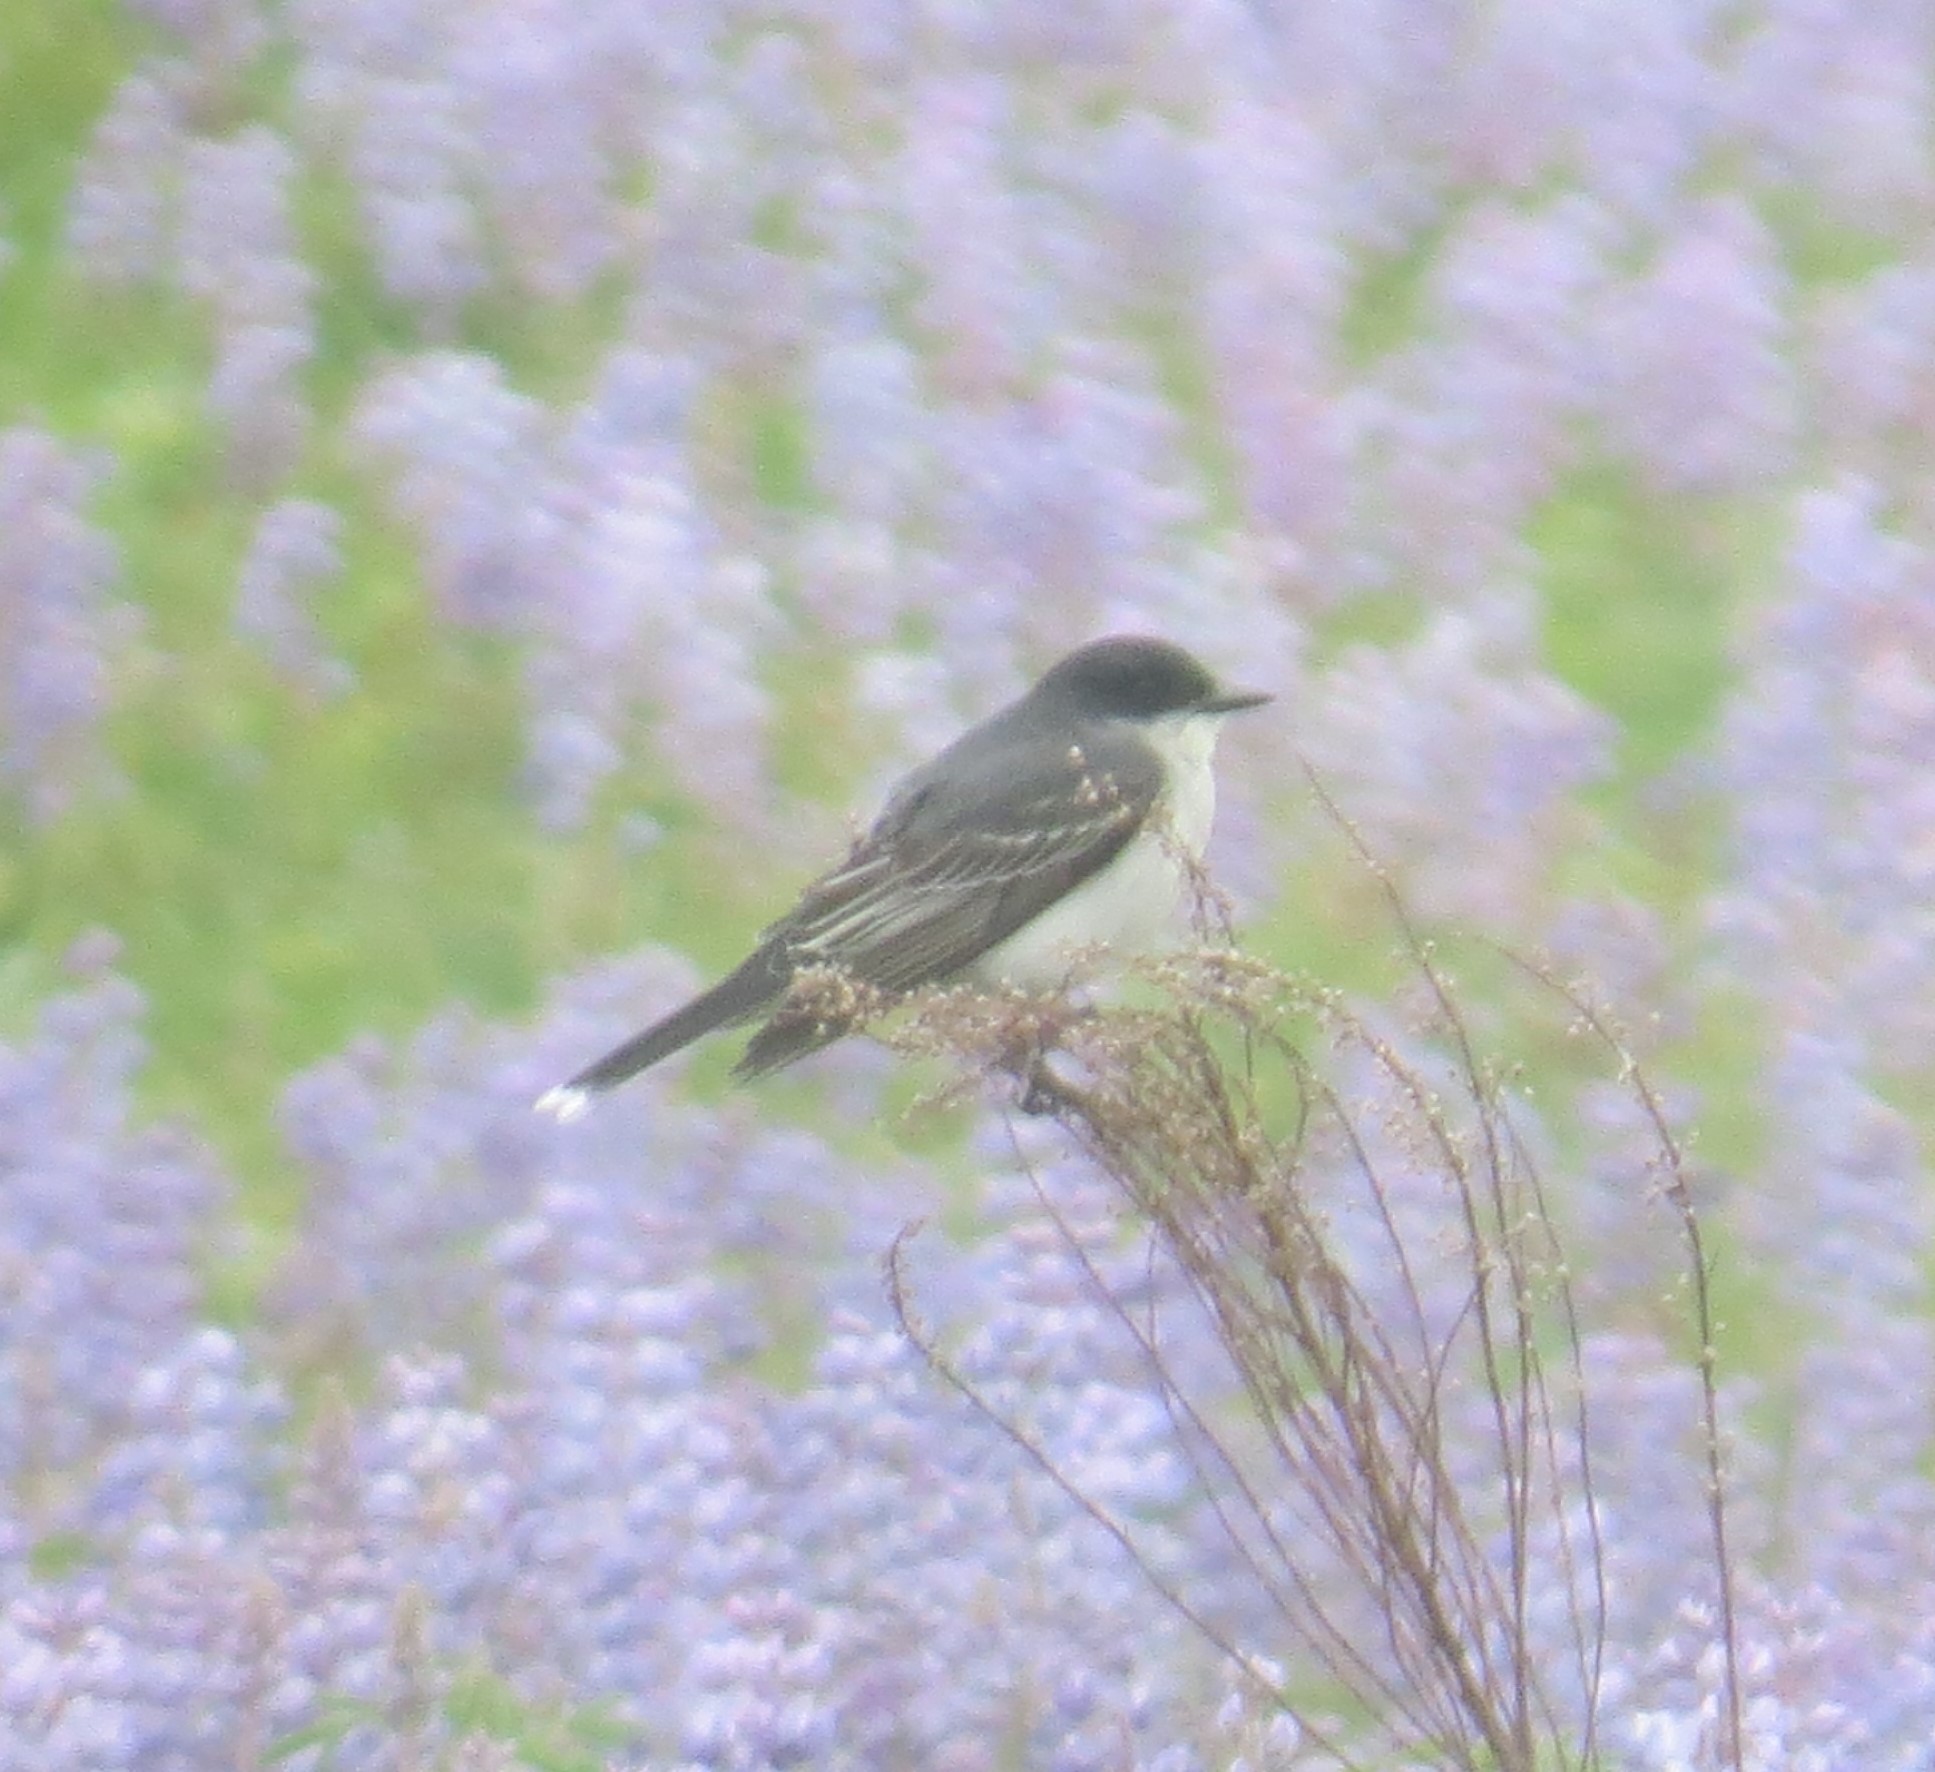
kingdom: Animalia
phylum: Chordata
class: Aves
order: Passeriformes
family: Tyrannidae
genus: Tyrannus
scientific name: Tyrannus tyrannus
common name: Eastern kingbird
